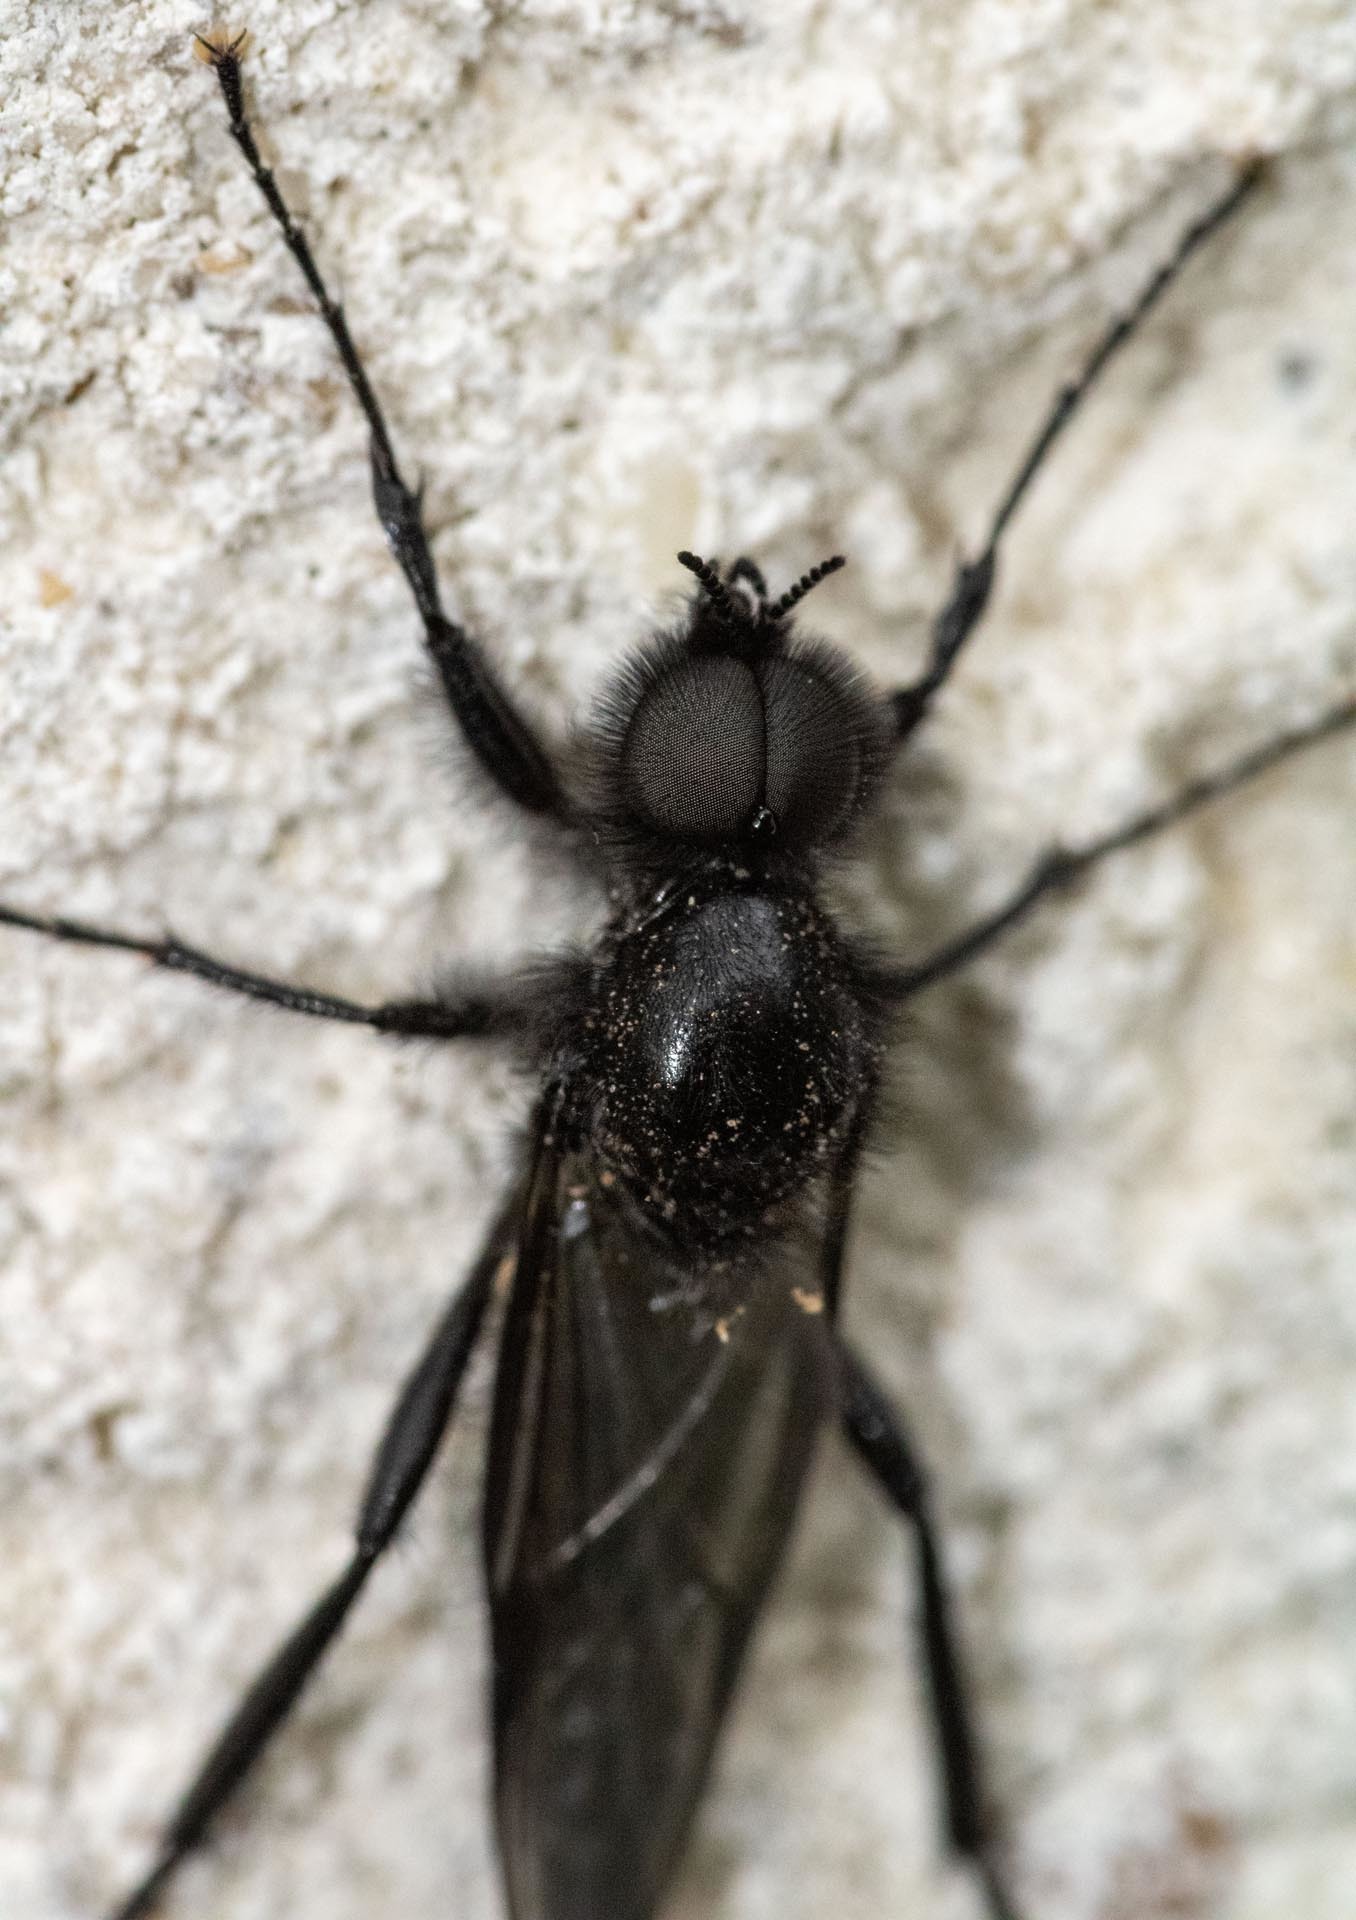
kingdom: Animalia
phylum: Arthropoda
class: Insecta
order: Diptera
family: Bibionidae
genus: Bibio
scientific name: Bibio marci
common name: St marks fly
